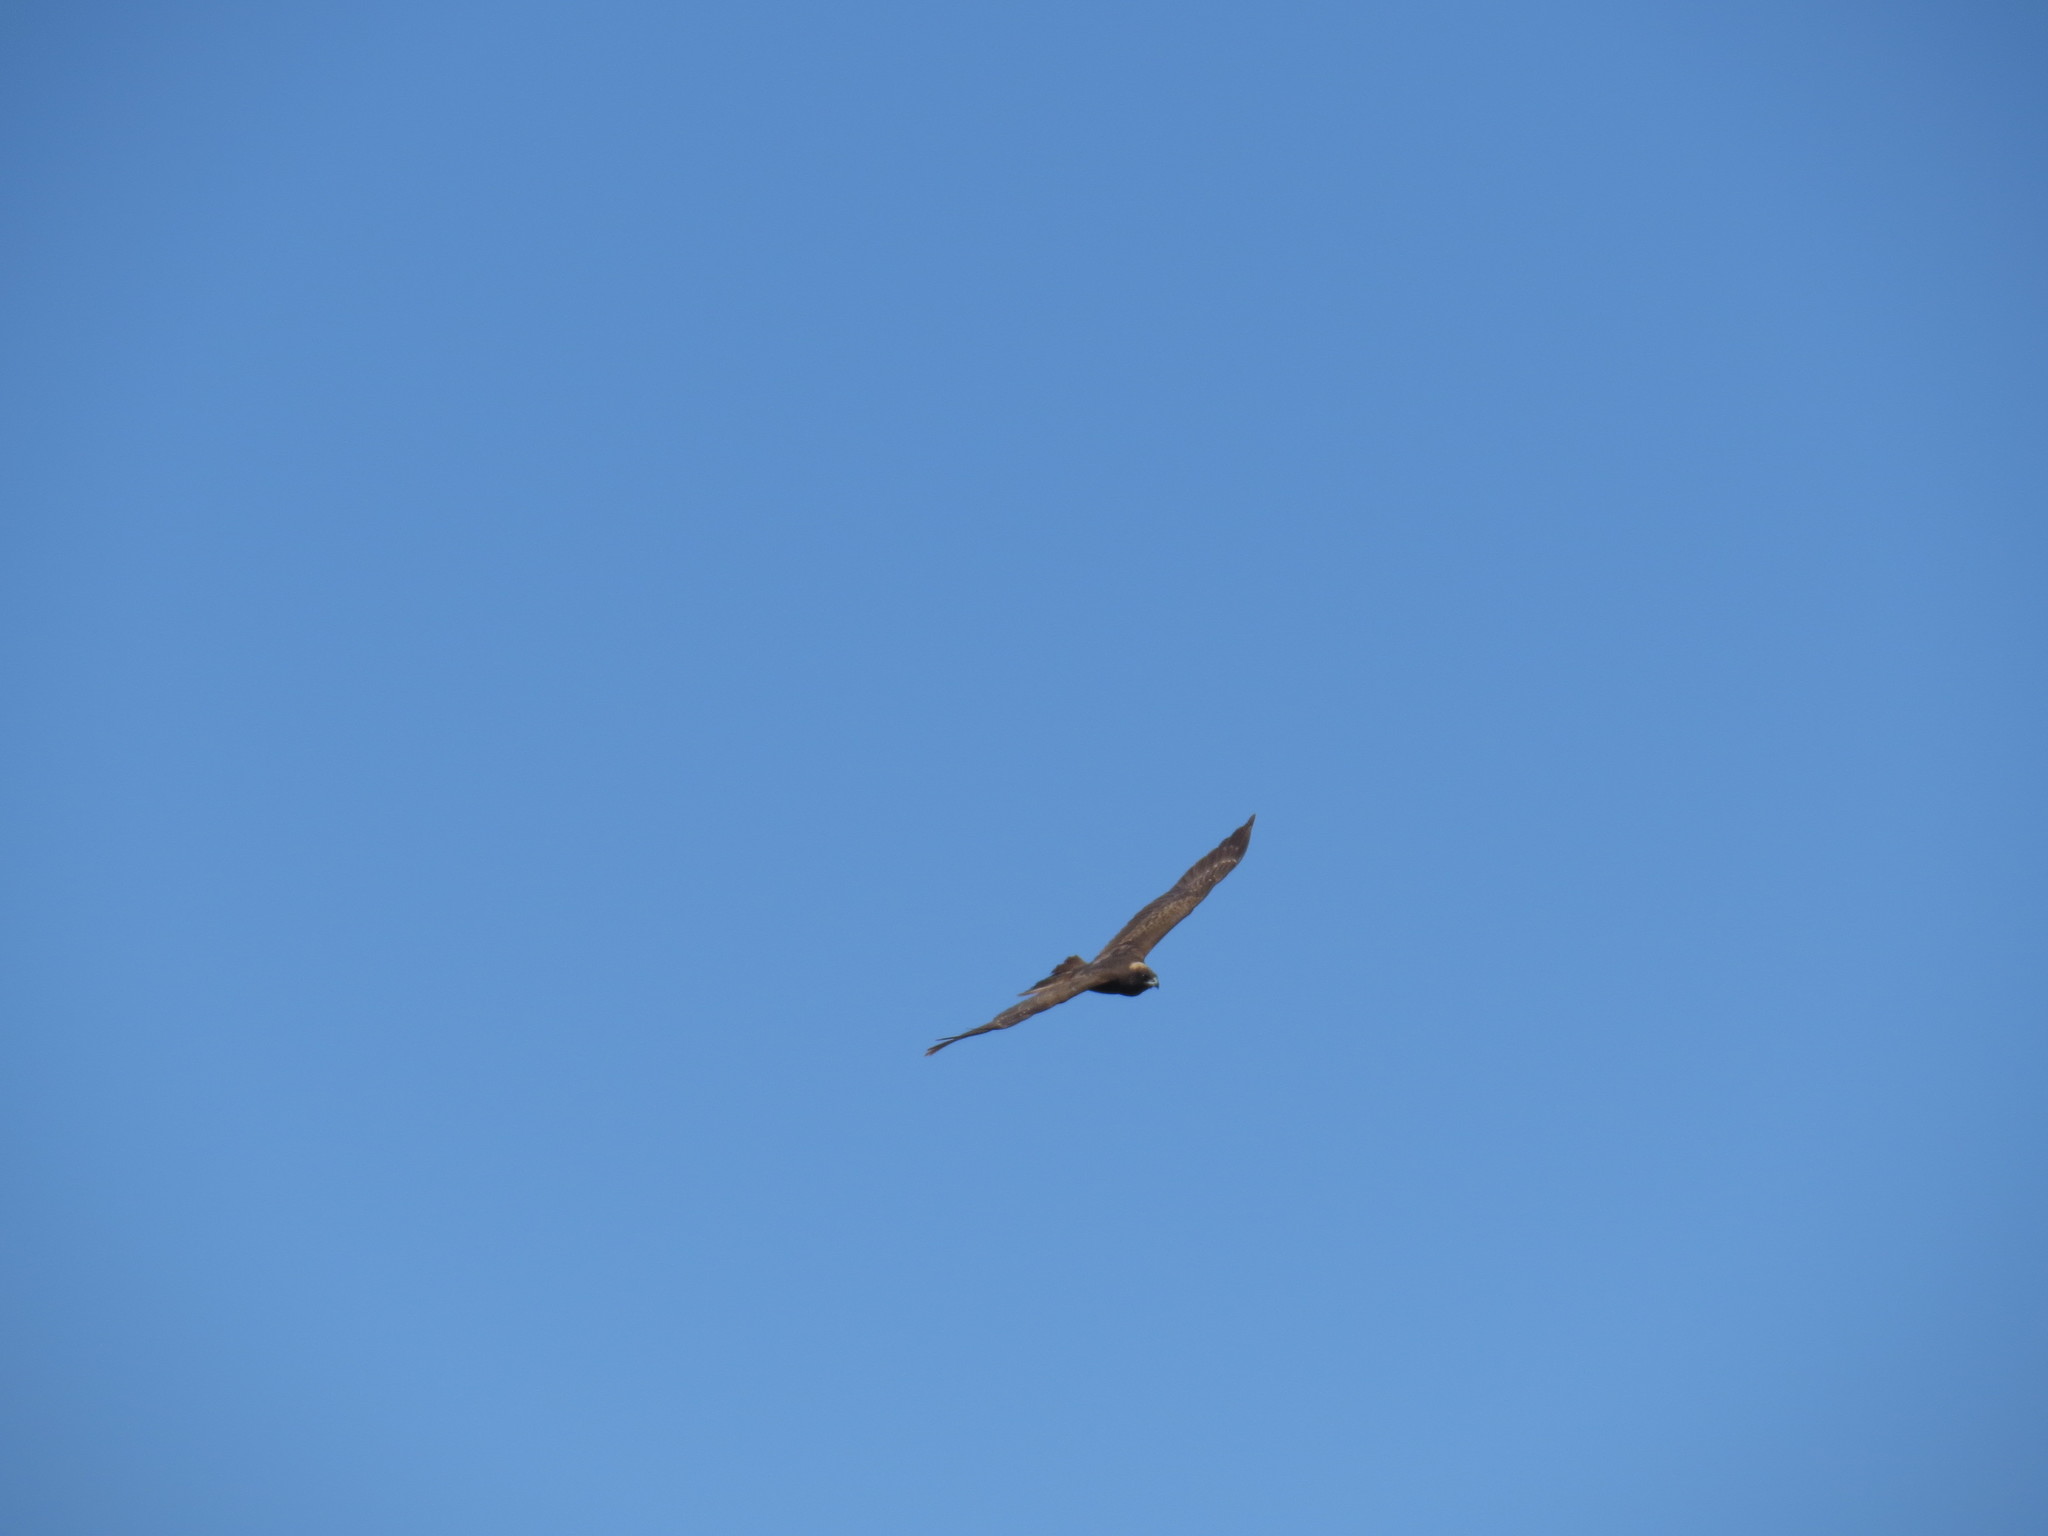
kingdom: Animalia
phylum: Chordata
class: Aves
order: Accipitriformes
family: Accipitridae
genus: Circus
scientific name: Circus aeruginosus
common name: Western marsh harrier
